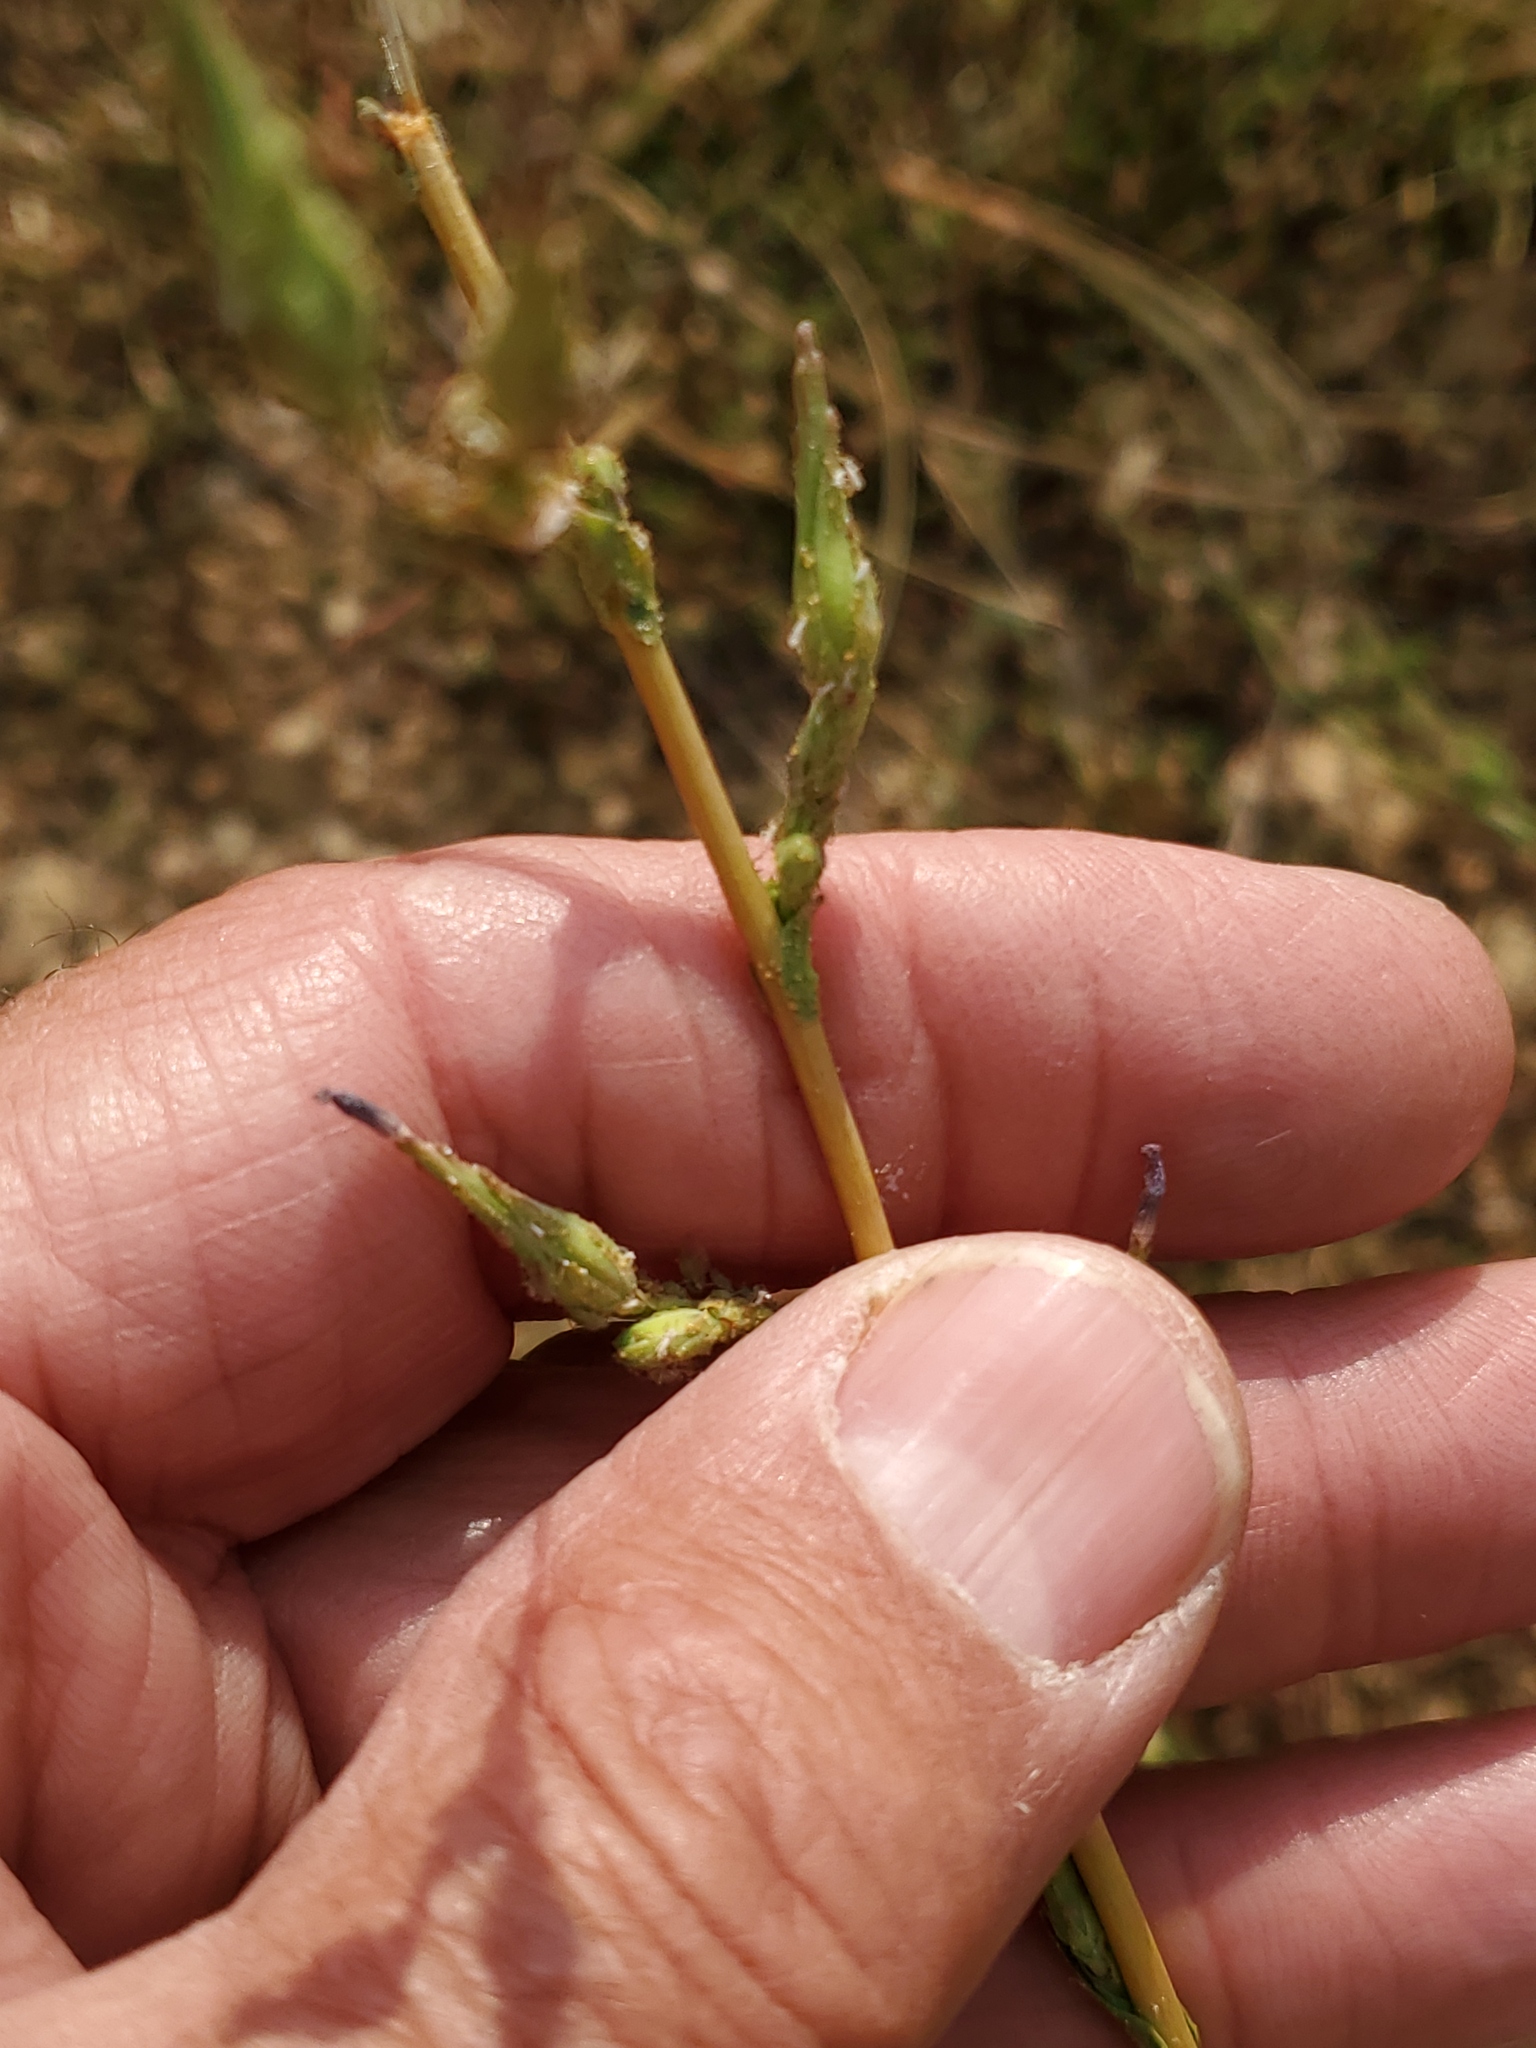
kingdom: Plantae
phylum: Tracheophyta
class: Magnoliopsida
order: Asterales
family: Asteraceae
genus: Lactuca
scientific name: Lactuca serriola
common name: Prickly lettuce
